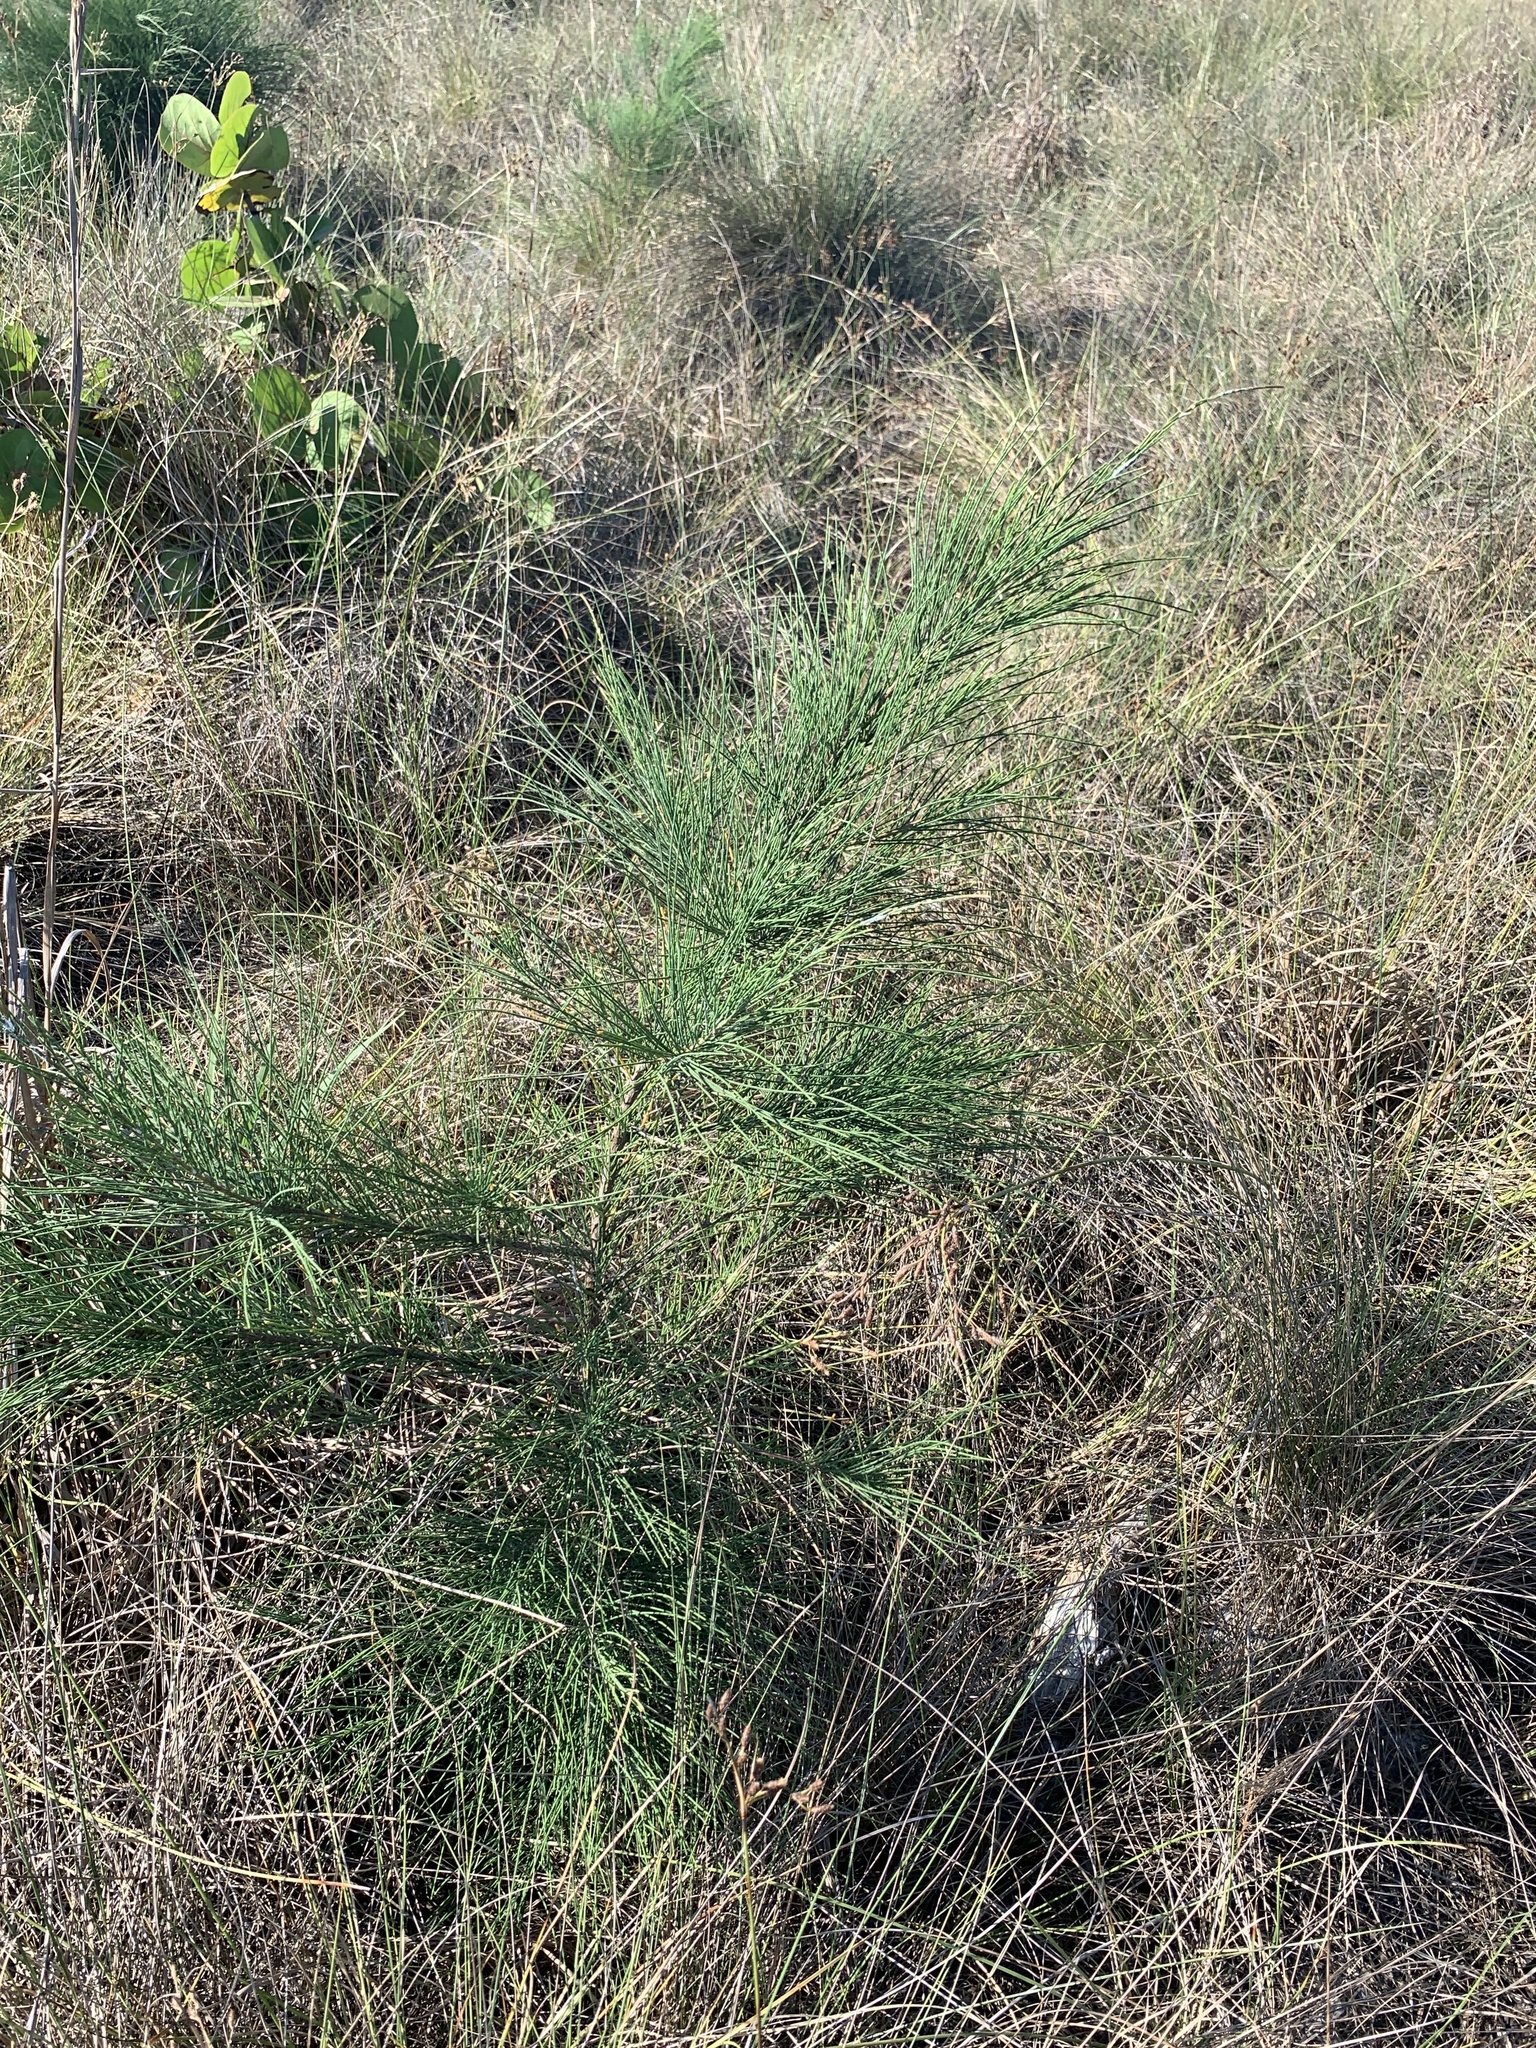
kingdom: Plantae
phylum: Tracheophyta
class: Magnoliopsida
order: Fagales
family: Casuarinaceae
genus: Casuarina
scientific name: Casuarina equisetifolia
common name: Beach sheoak
